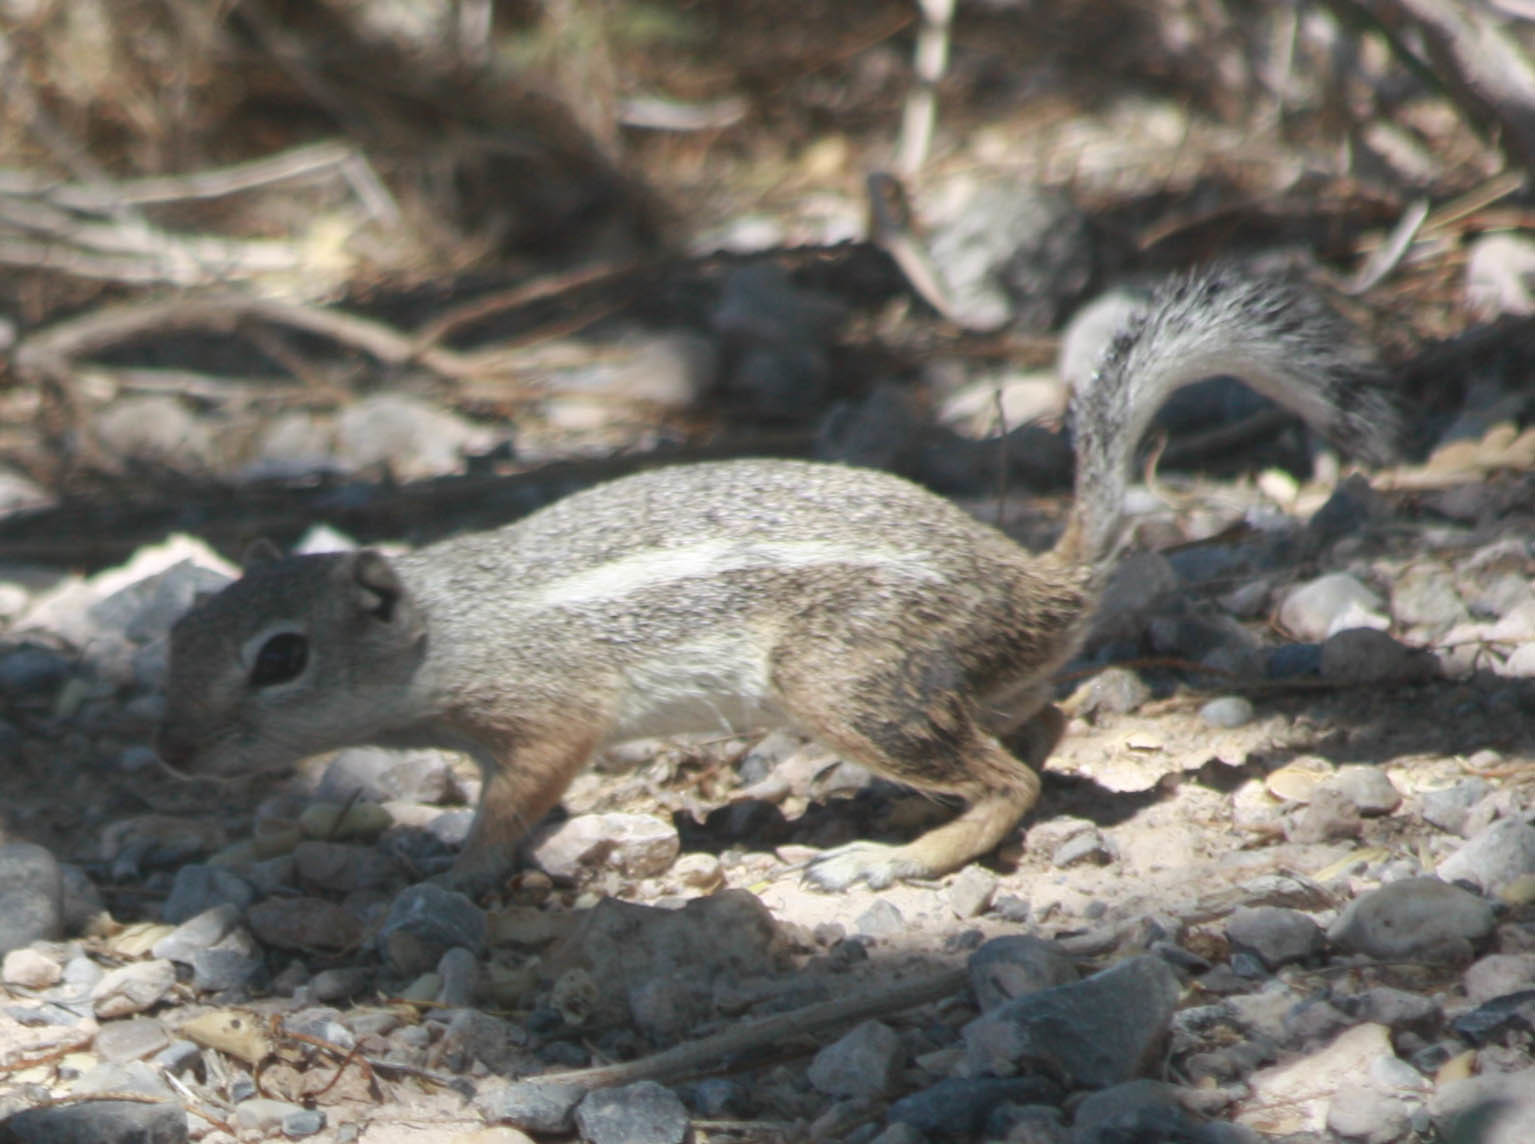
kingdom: Animalia
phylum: Chordata
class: Mammalia
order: Rodentia
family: Sciuridae
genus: Ammospermophilus
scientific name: Ammospermophilus leucurus
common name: White-tailed antelope squirrel
